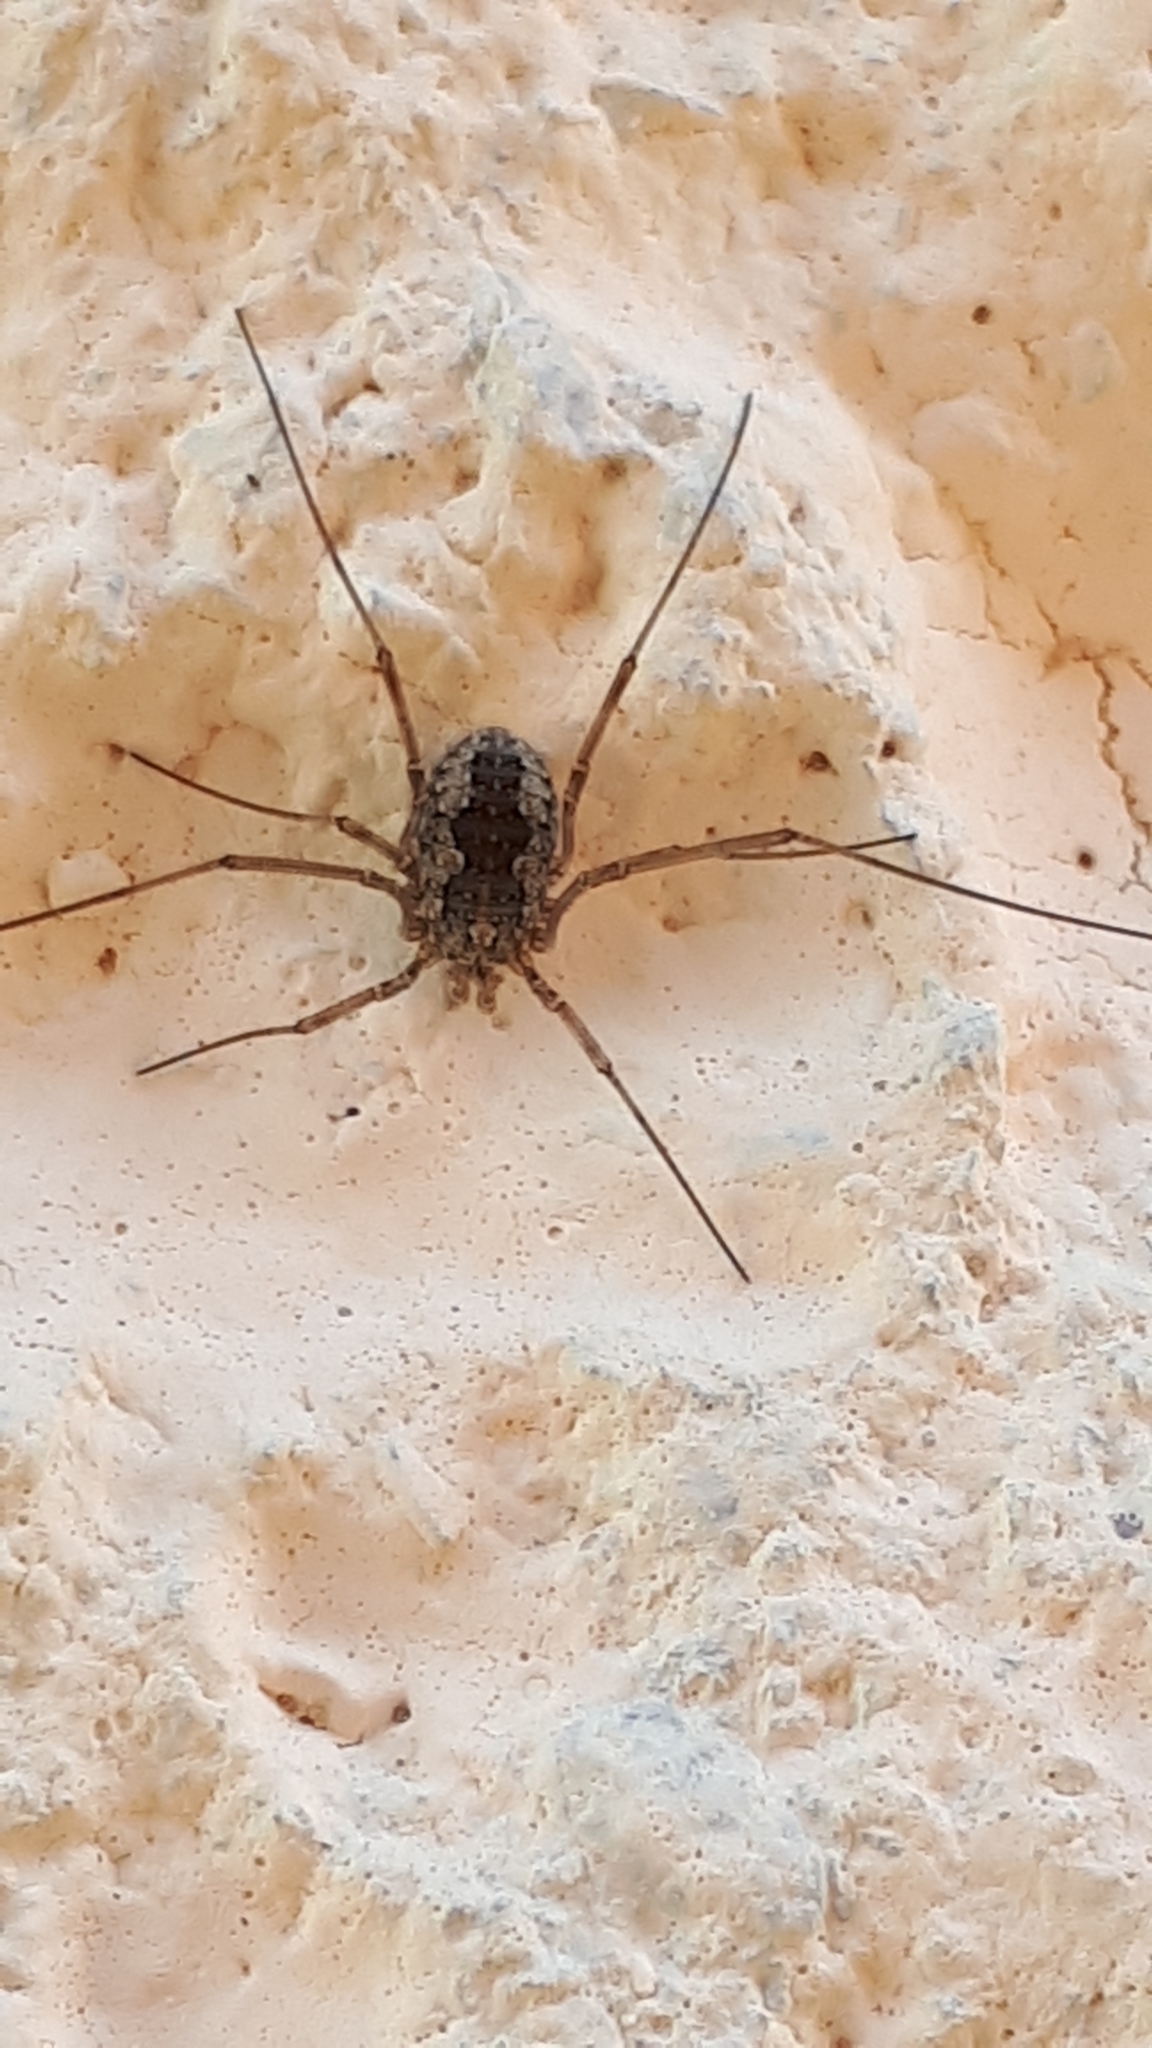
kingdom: Animalia
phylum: Arthropoda
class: Arachnida
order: Opiliones
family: Phalangiidae
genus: Phalangium
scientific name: Phalangium opilio
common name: Daddy longleg
